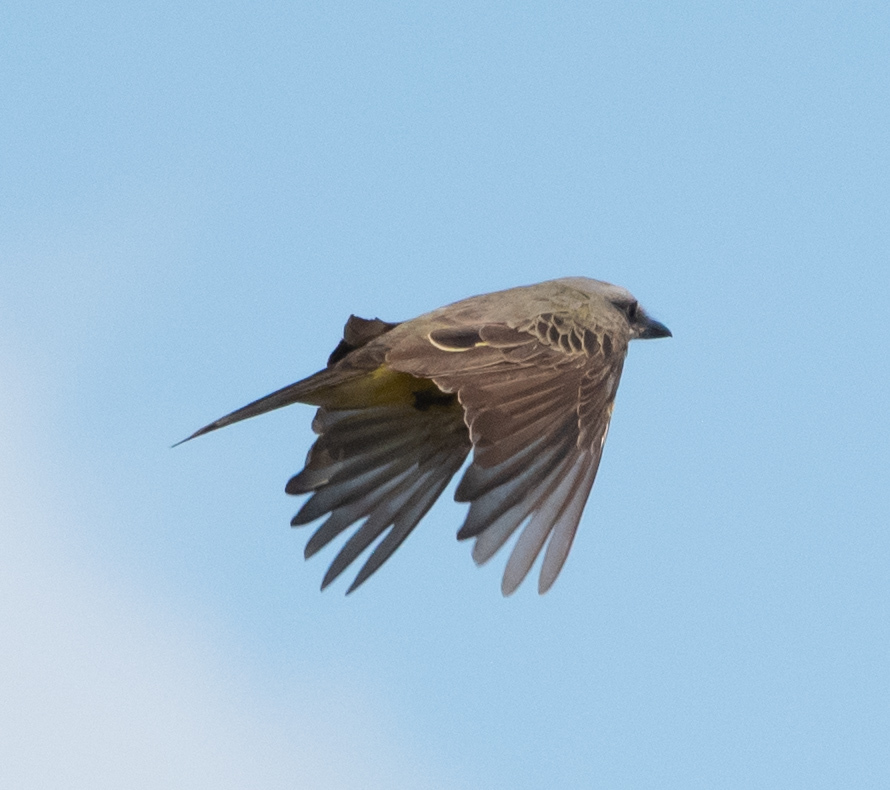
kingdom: Animalia
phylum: Chordata
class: Aves
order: Passeriformes
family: Tyrannidae
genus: Tyrannus
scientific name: Tyrannus melancholicus
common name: Tropical kingbird
